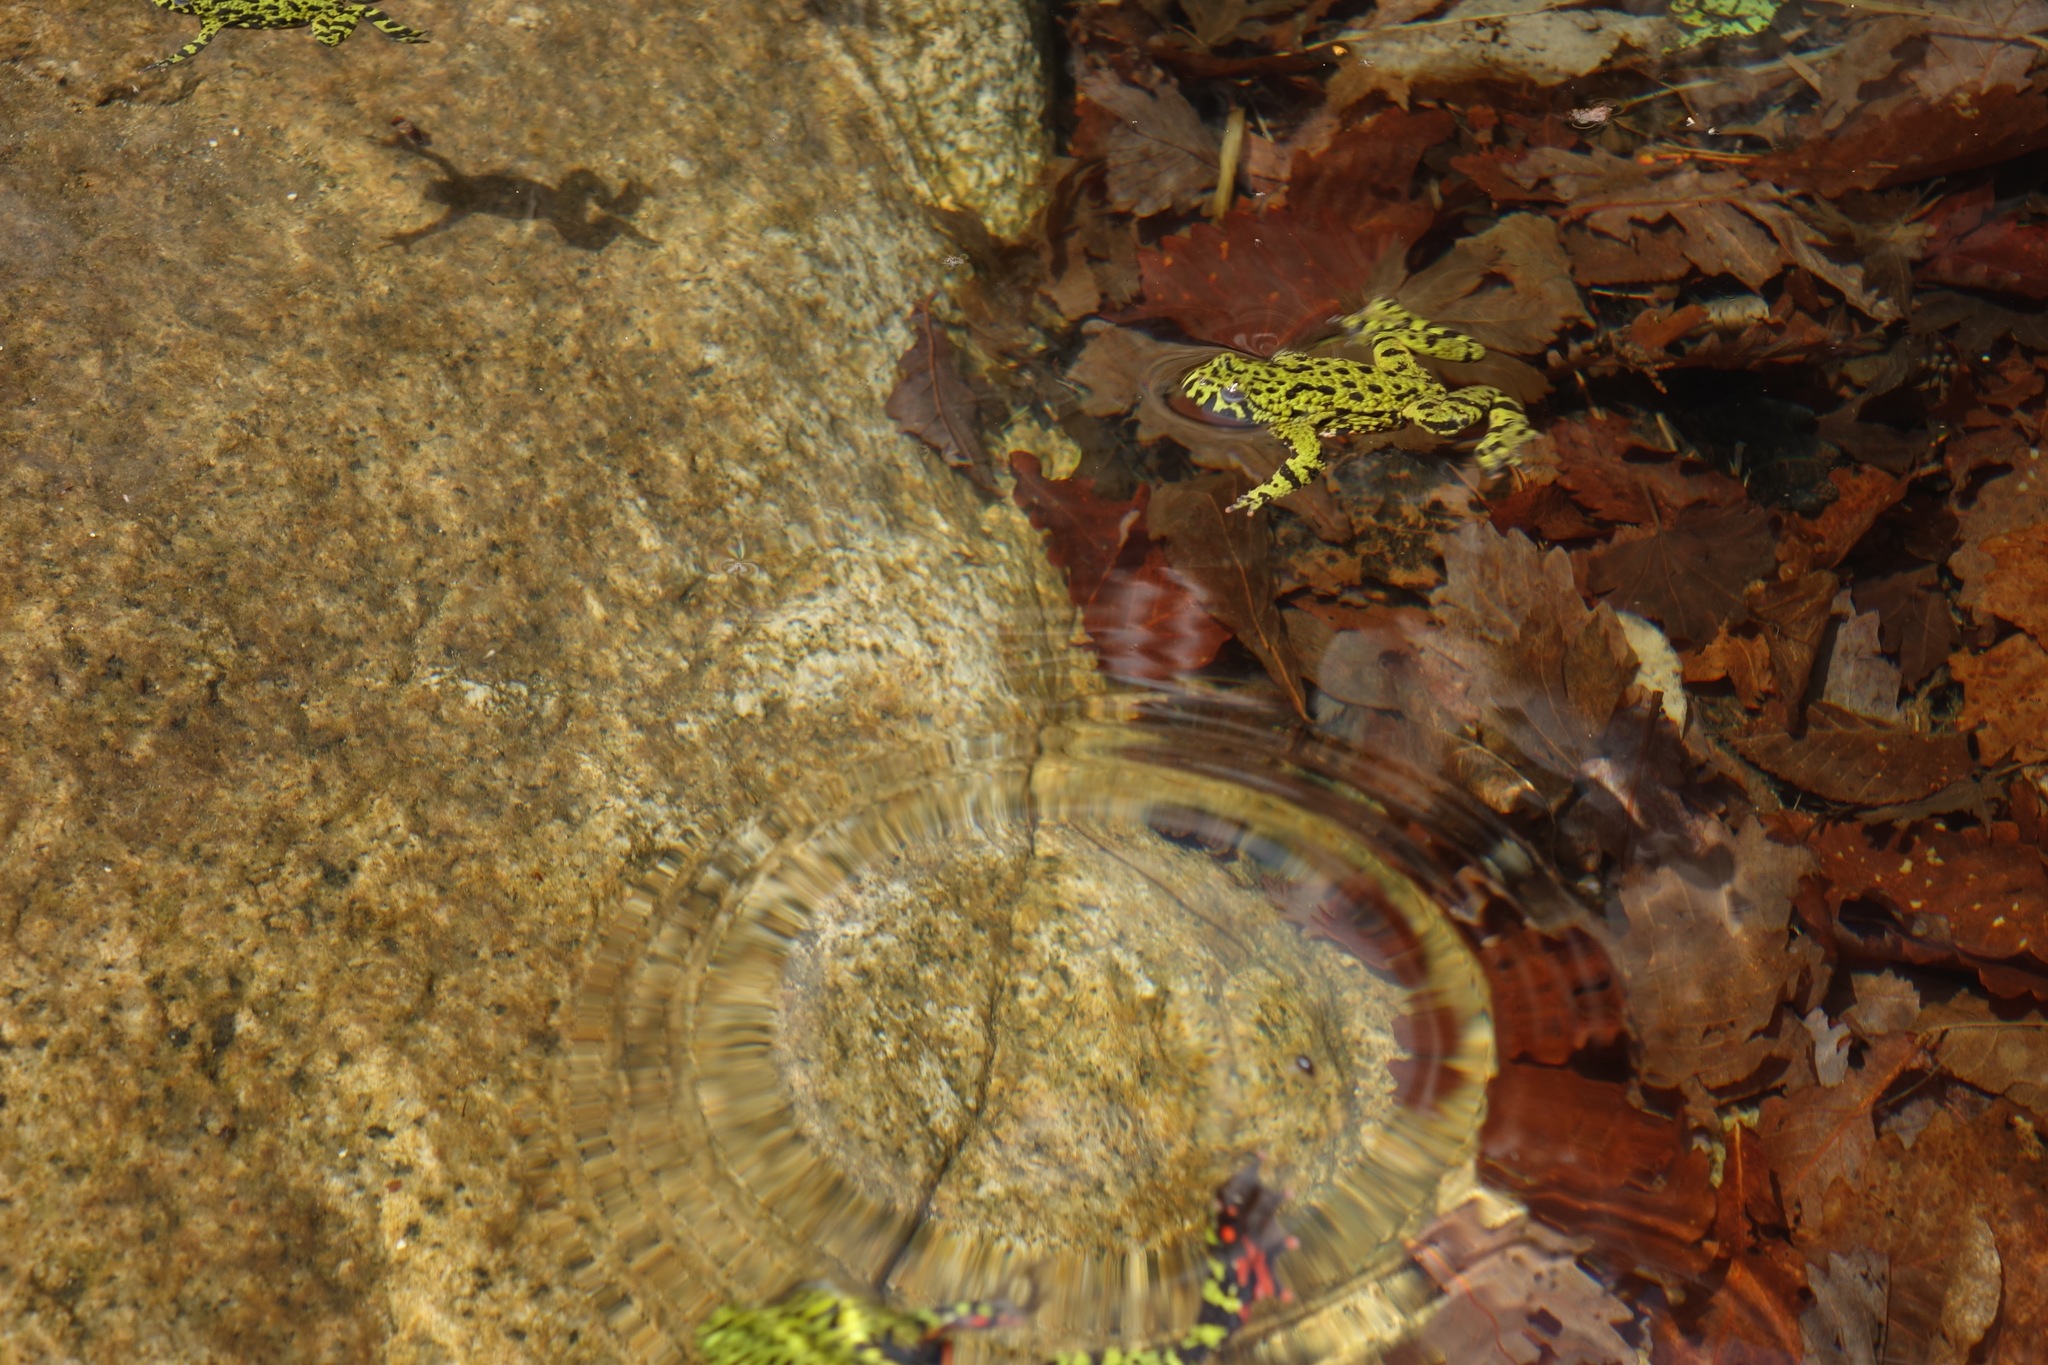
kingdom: Animalia
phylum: Chordata
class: Amphibia
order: Anura
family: Bombinatoridae
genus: Bombina
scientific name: Bombina orientalis
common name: Oriental firebelly toad
